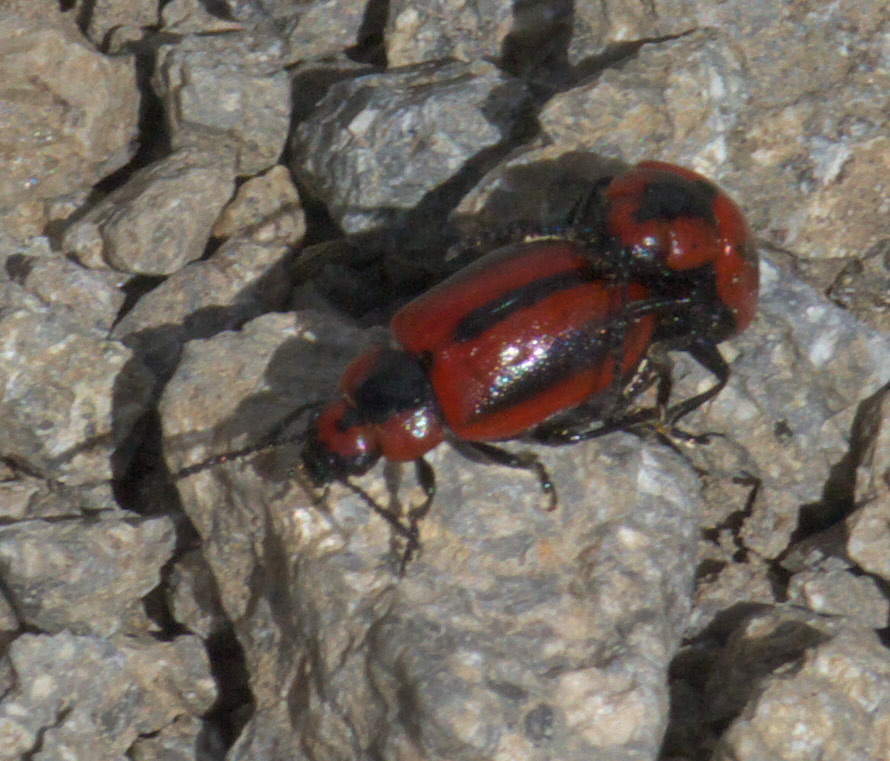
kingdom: Animalia
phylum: Arthropoda
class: Insecta
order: Coleoptera
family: Chrysomelidae
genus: Entomoscelis
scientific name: Entomoscelis americana
